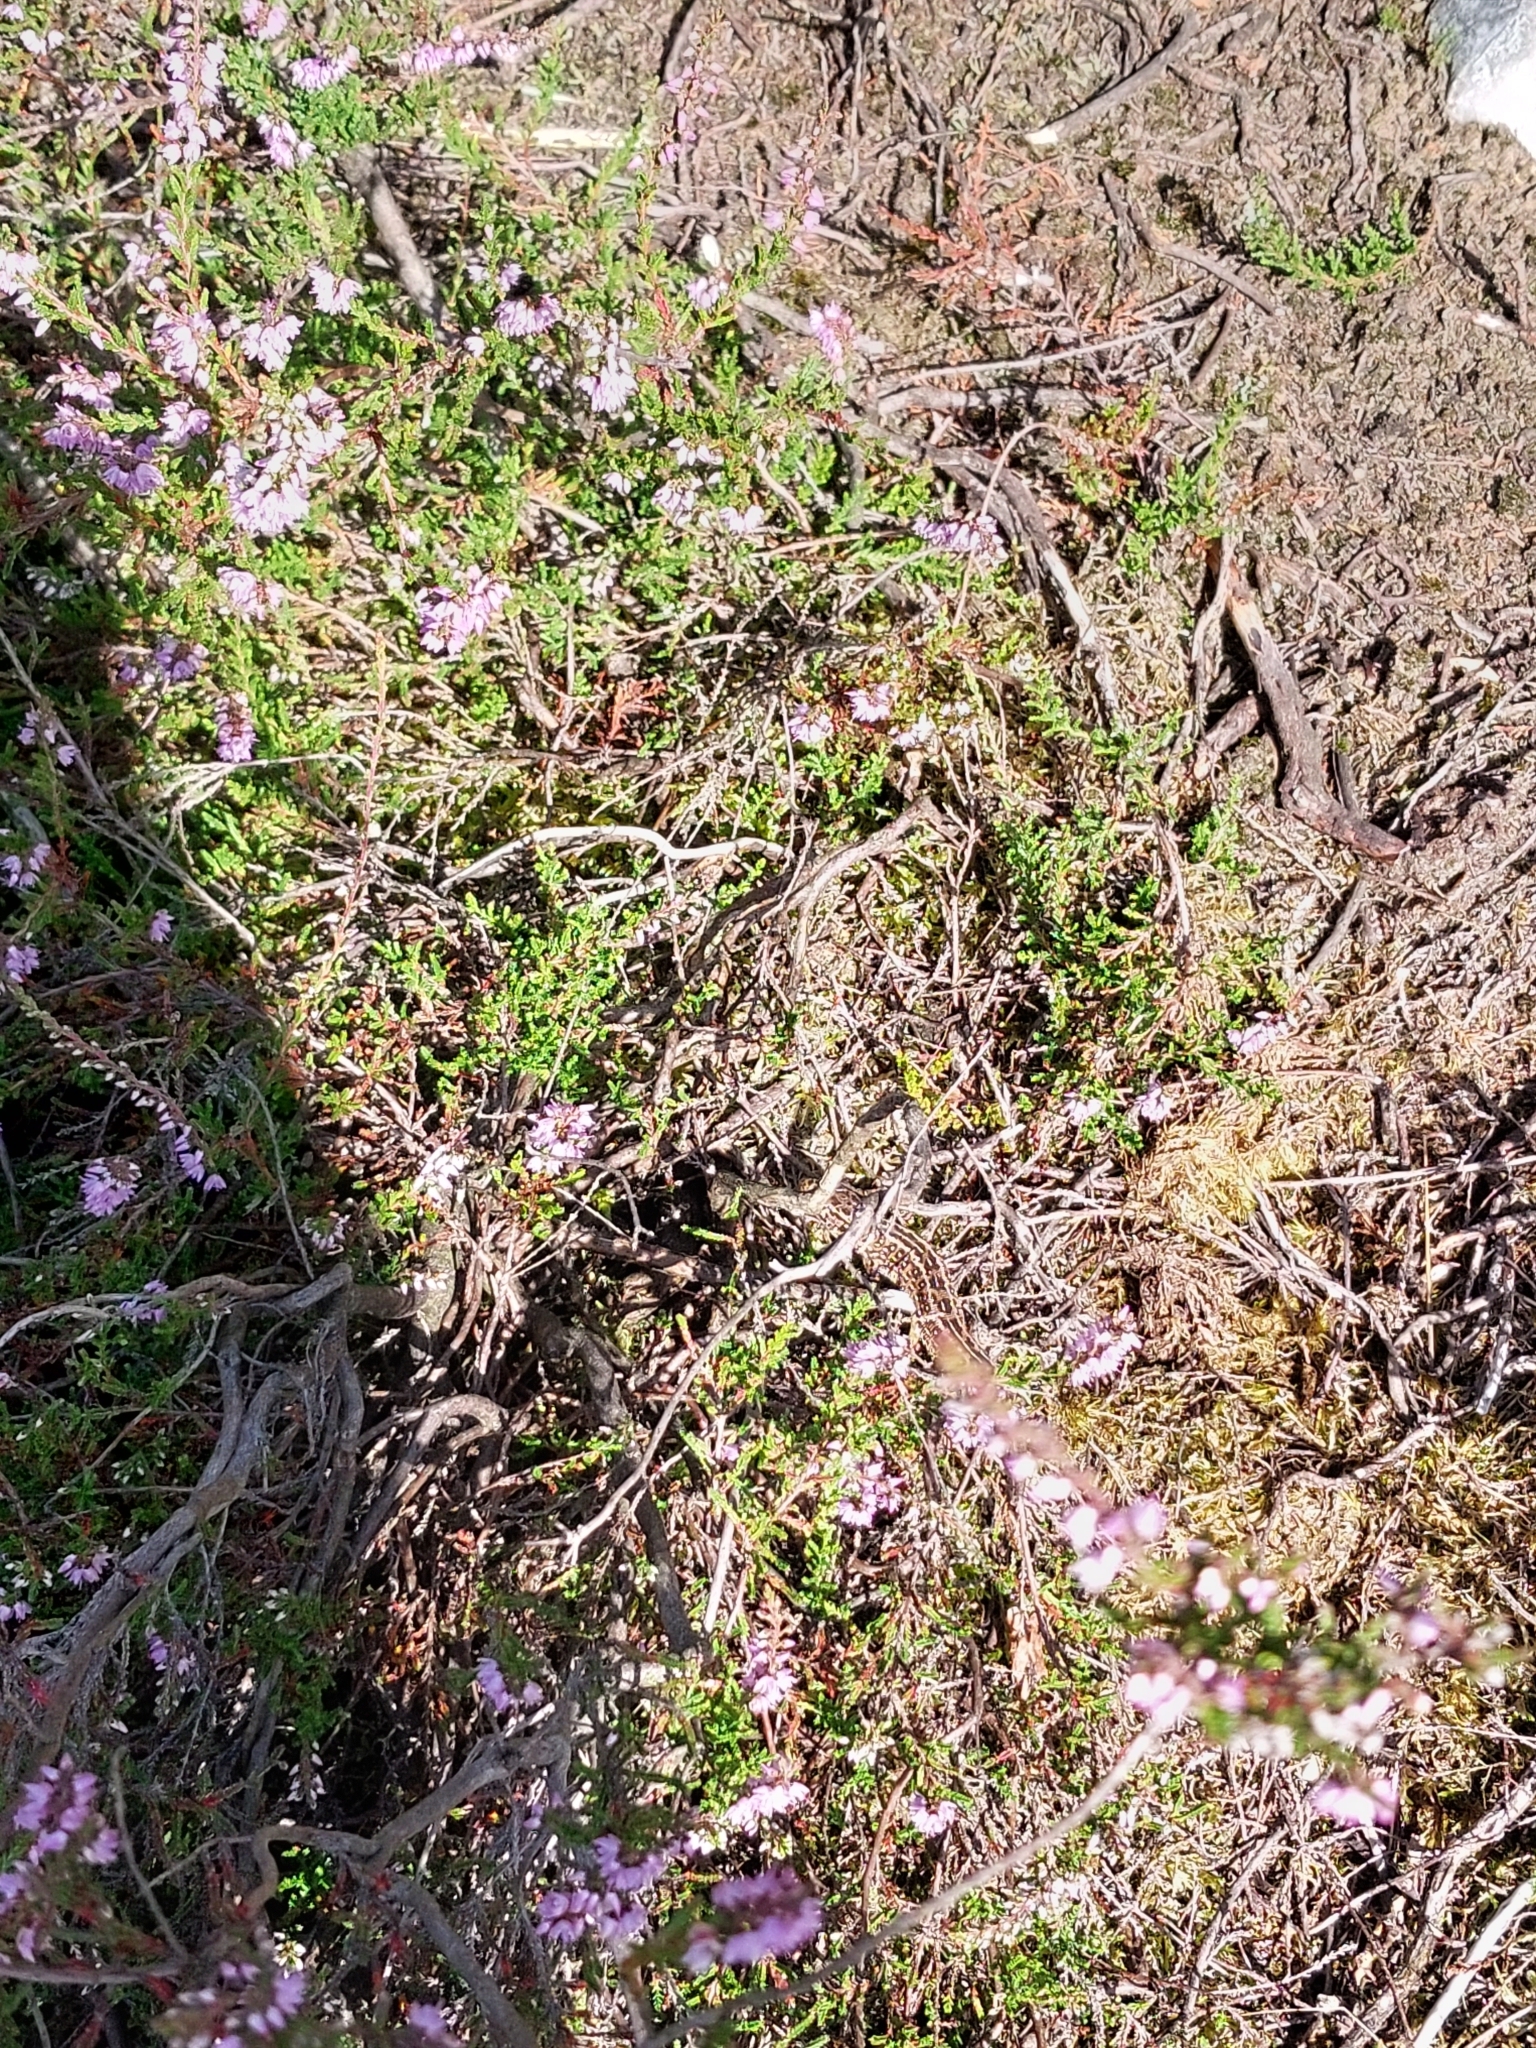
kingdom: Animalia
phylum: Chordata
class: Squamata
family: Lacertidae
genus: Lacerta
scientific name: Lacerta agilis
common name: Sand lizard
